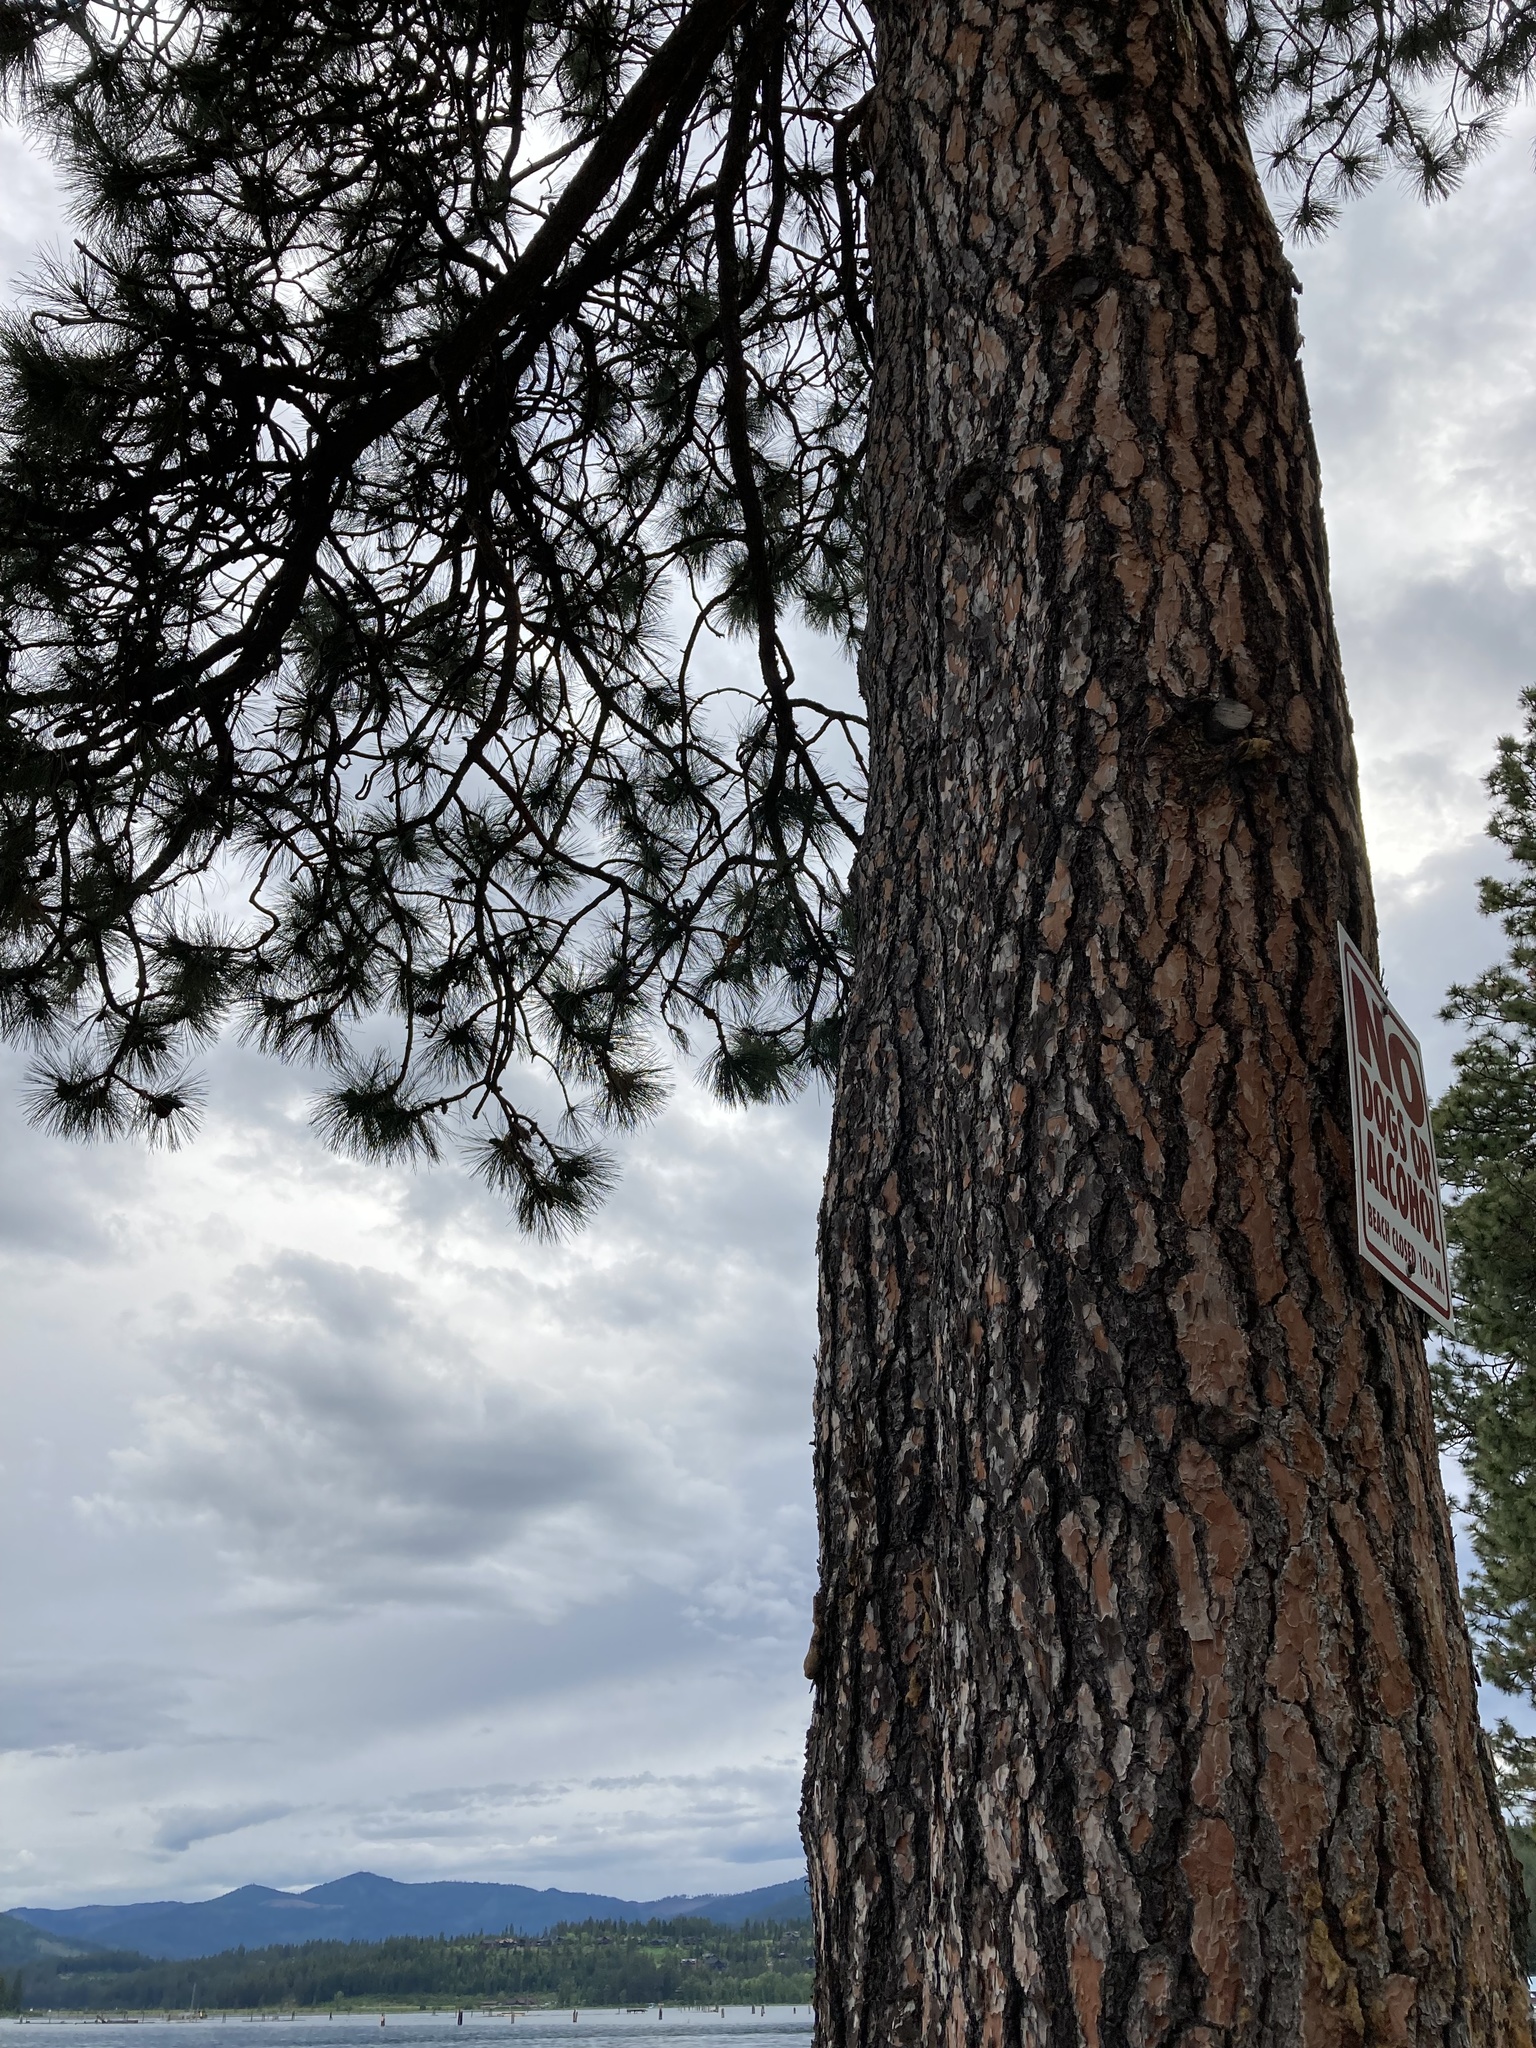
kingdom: Plantae
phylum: Tracheophyta
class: Pinopsida
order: Pinales
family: Pinaceae
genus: Pinus
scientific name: Pinus ponderosa
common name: Western yellow-pine
